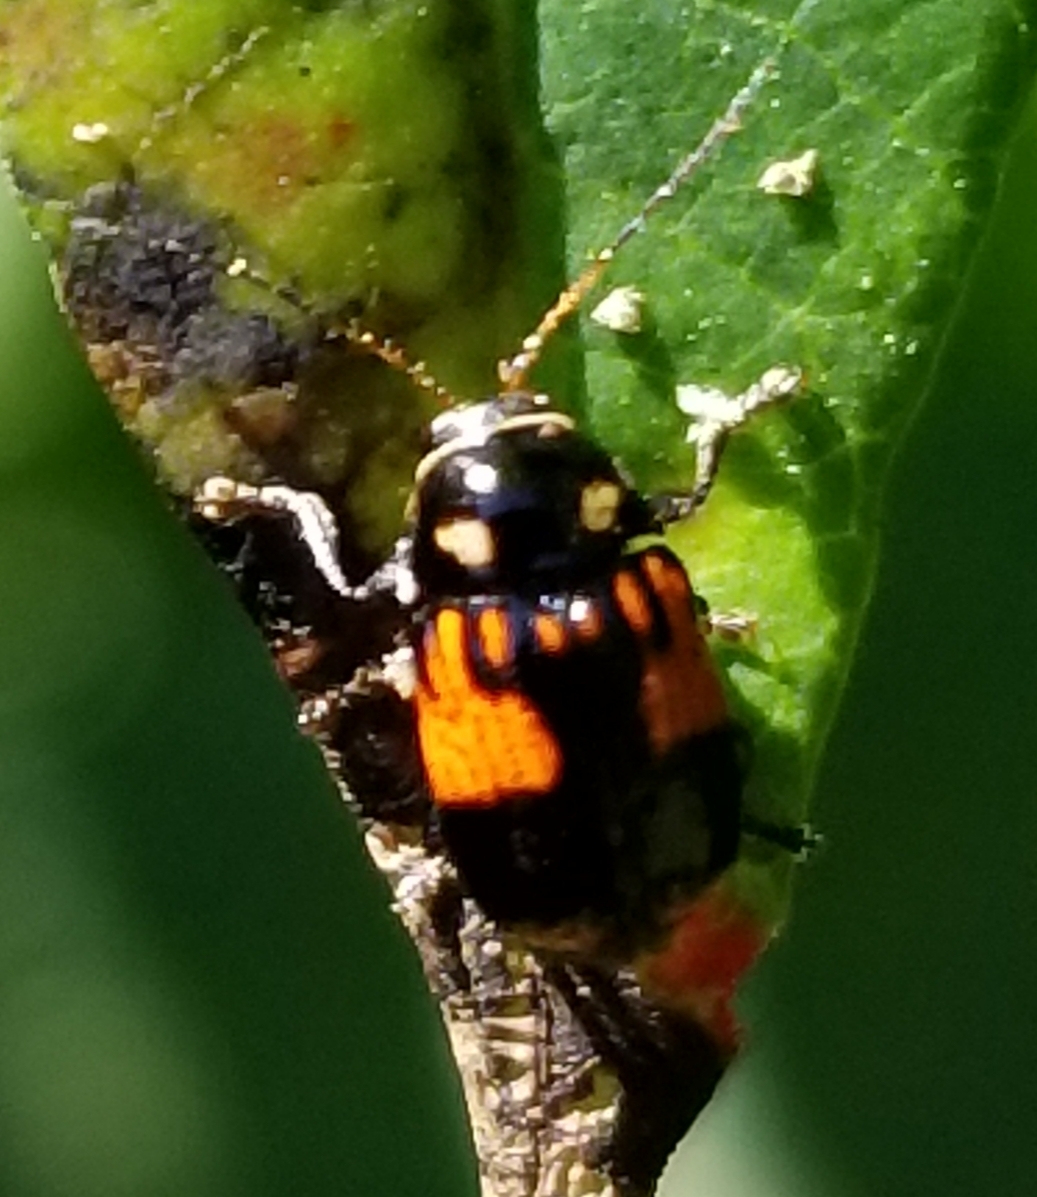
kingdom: Animalia
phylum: Arthropoda
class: Insecta
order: Coleoptera
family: Chrysomelidae
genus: Bassareus
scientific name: Bassareus mammifer
